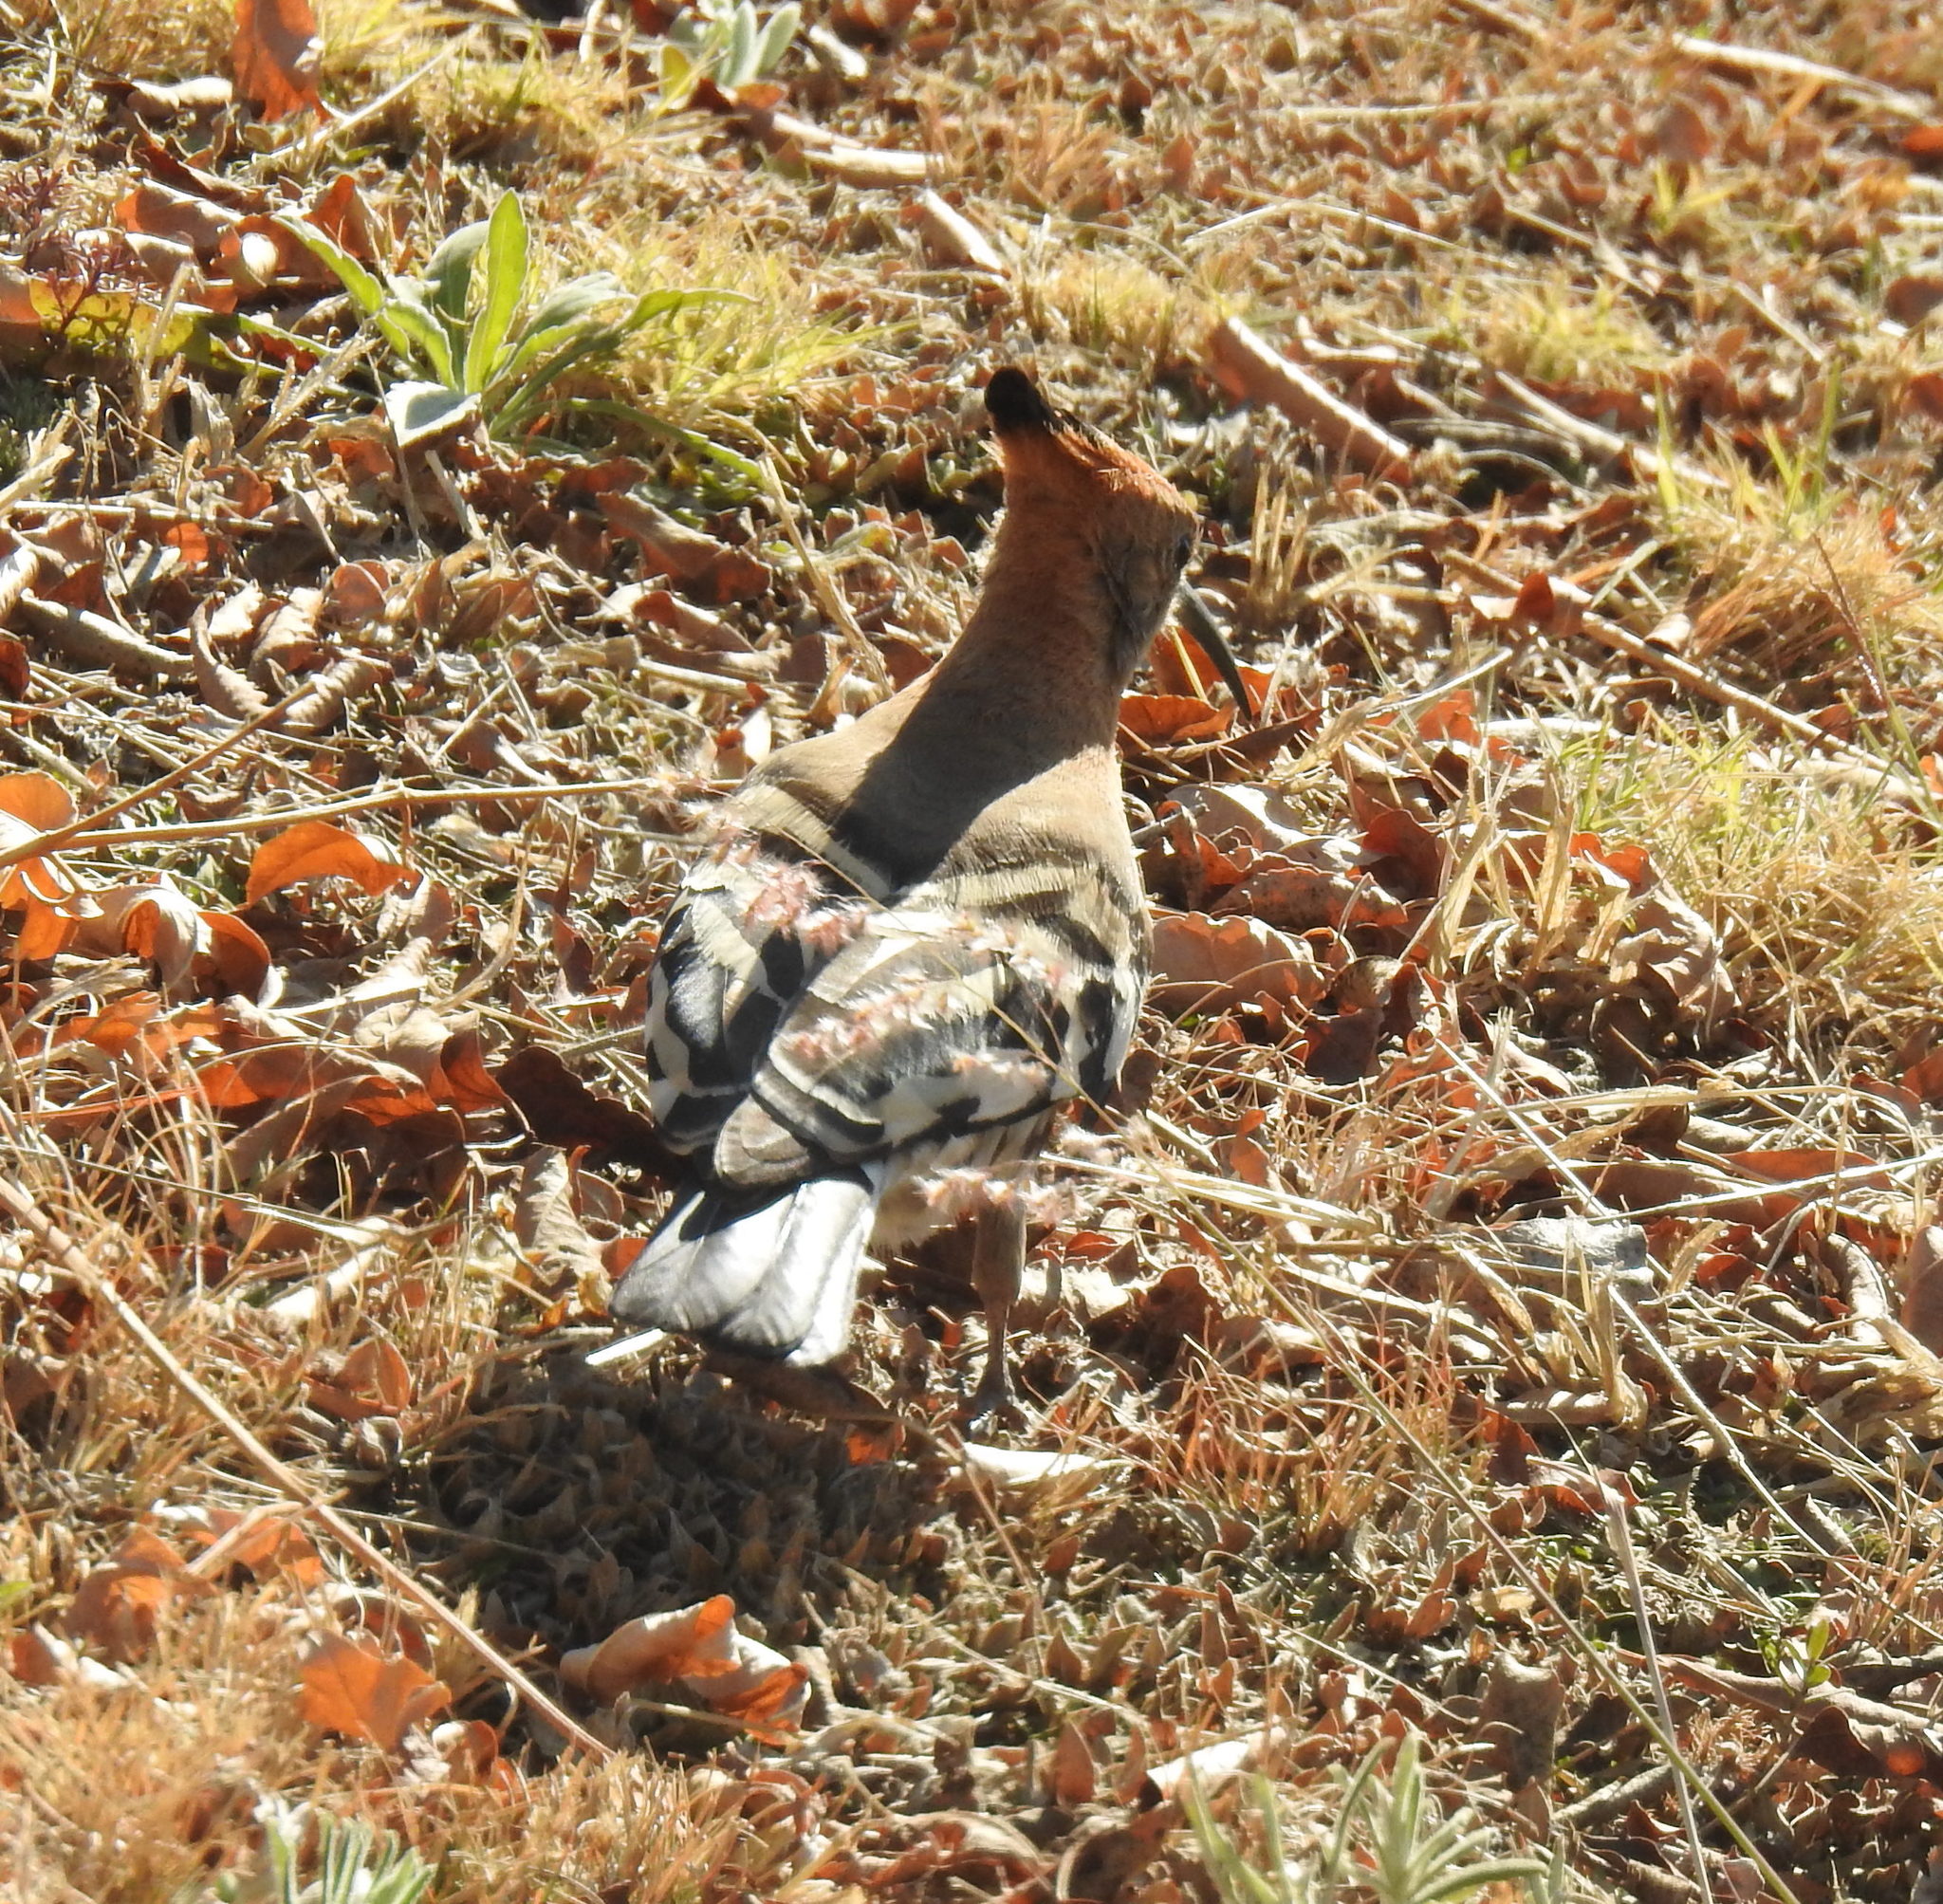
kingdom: Animalia
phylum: Chordata
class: Aves
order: Bucerotiformes
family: Upupidae
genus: Upupa
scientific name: Upupa africana
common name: African hoopoe
